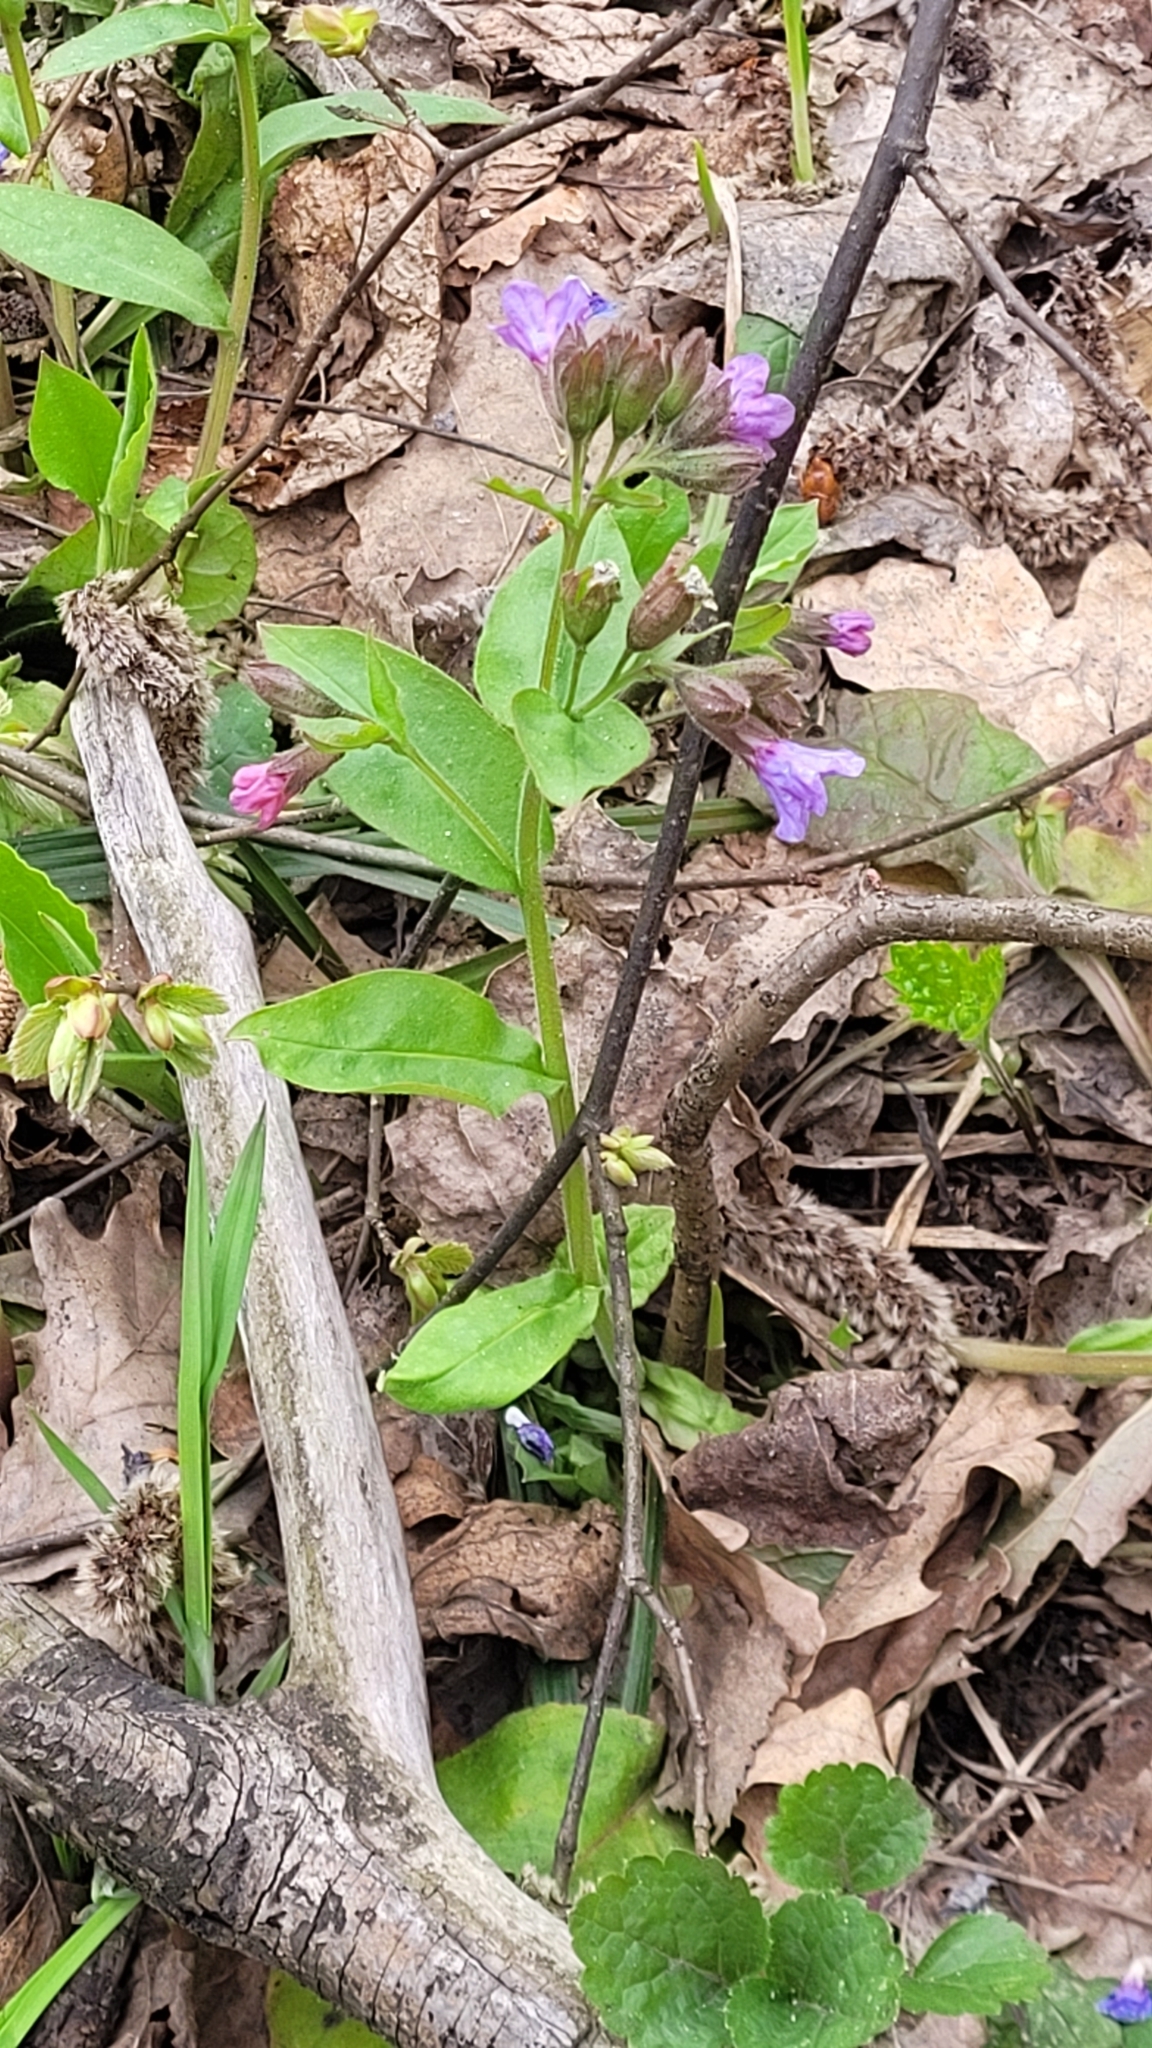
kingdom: Plantae
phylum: Tracheophyta
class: Magnoliopsida
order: Boraginales
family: Boraginaceae
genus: Pulmonaria
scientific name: Pulmonaria obscura
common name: Suffolk lungwort
